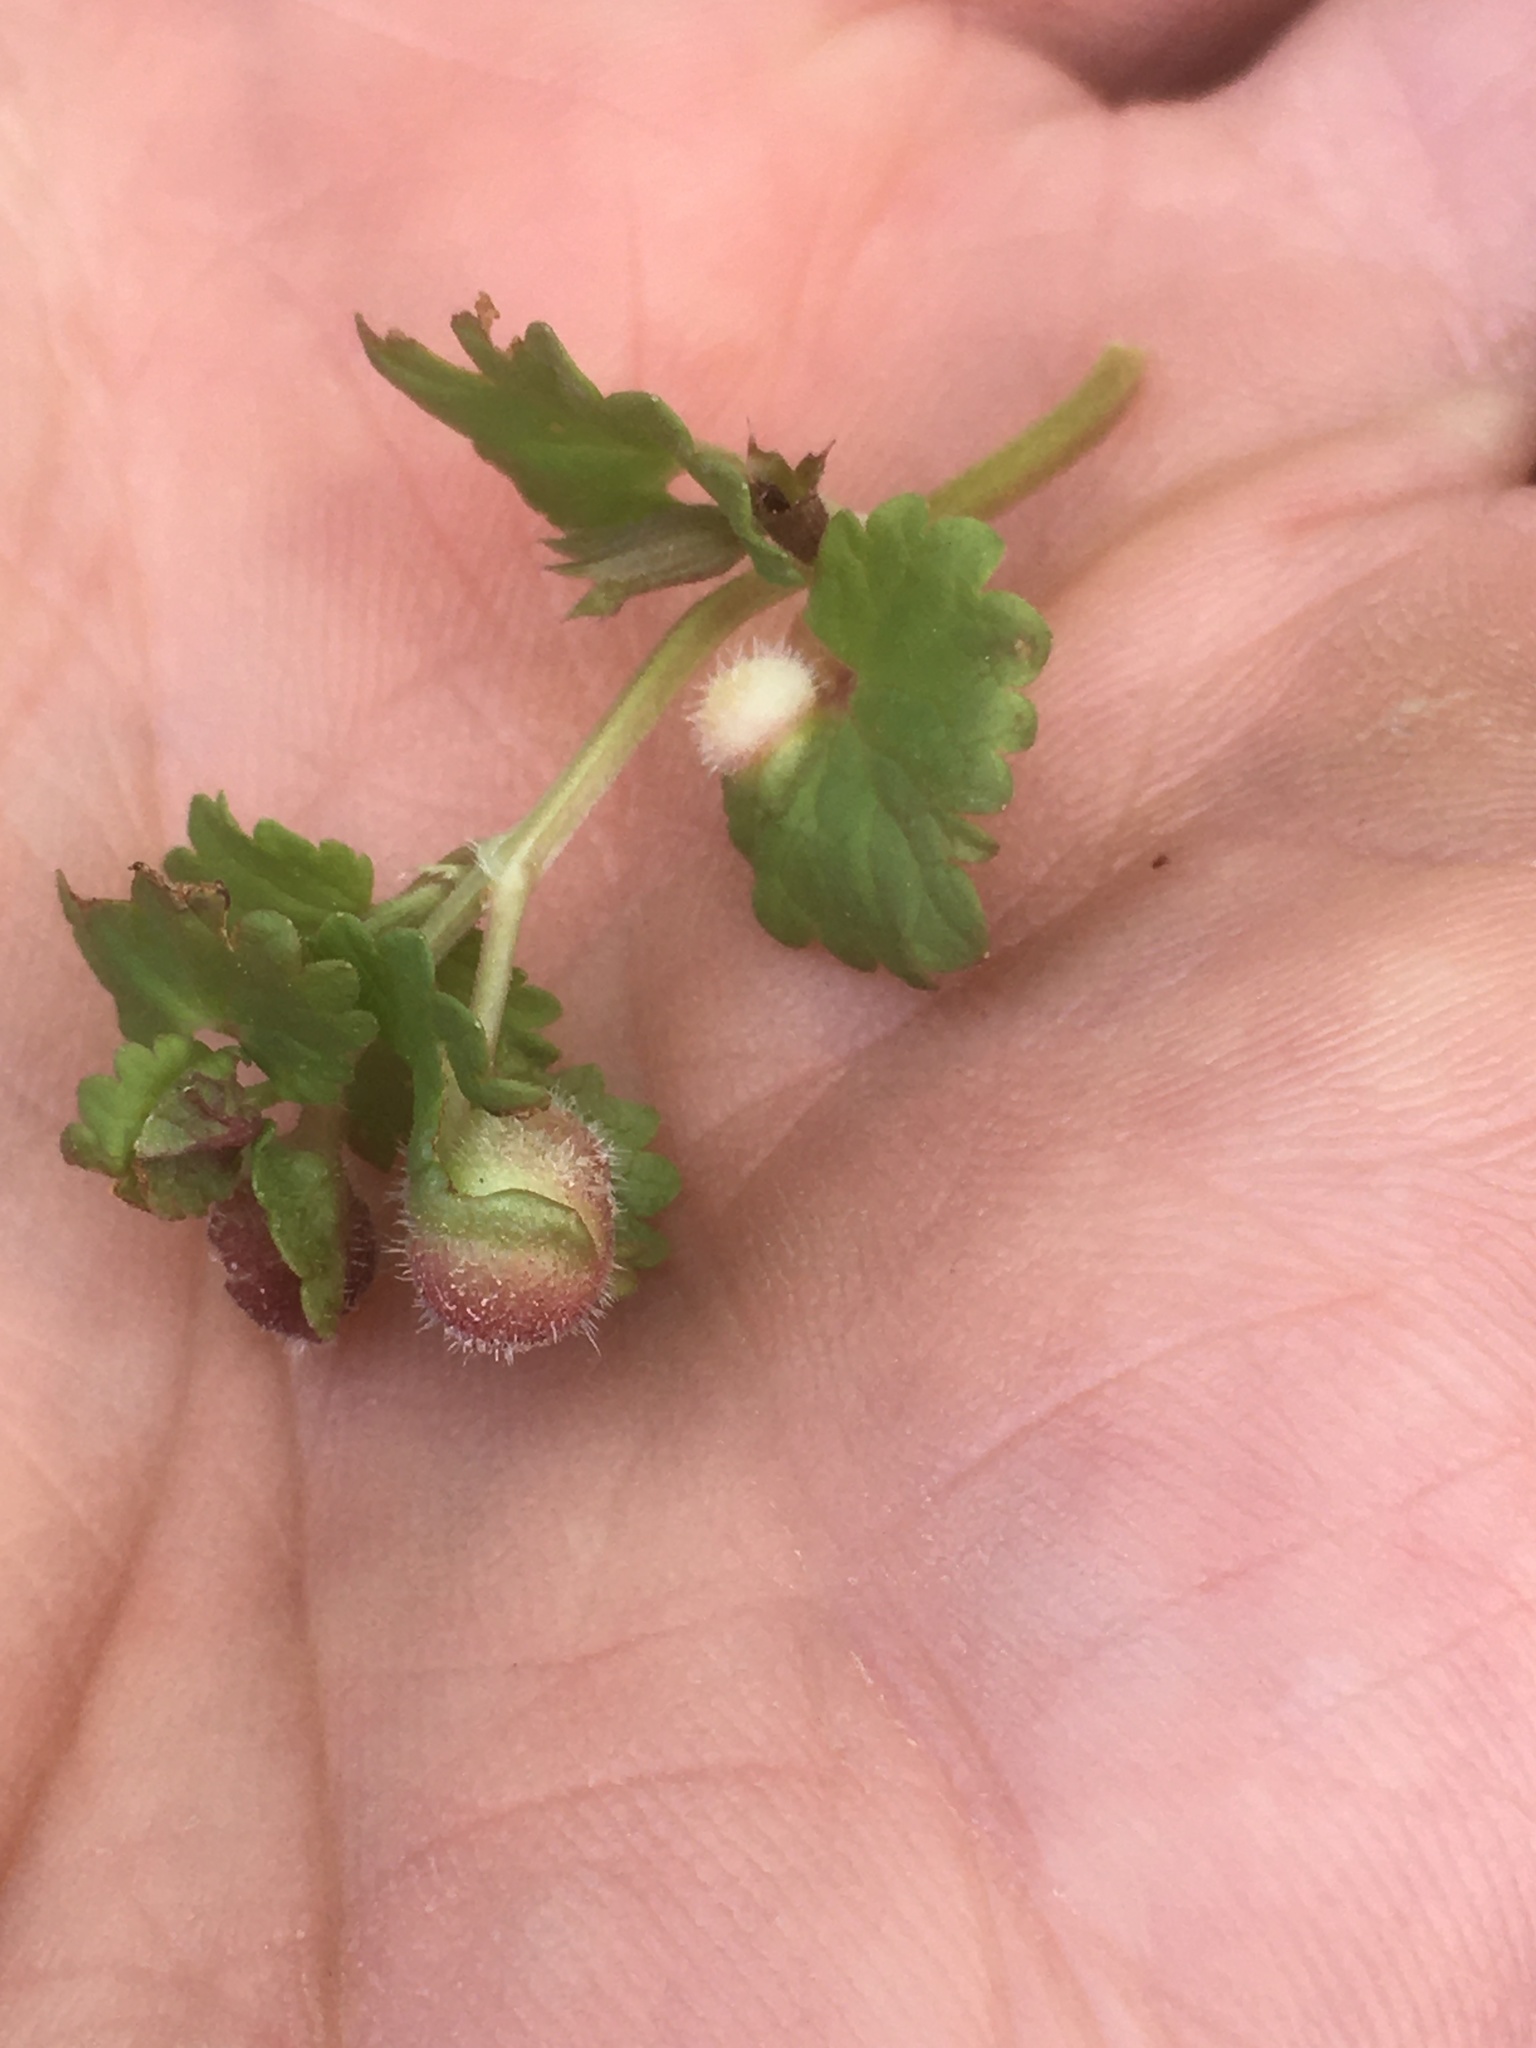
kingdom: Animalia
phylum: Arthropoda
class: Insecta
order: Hymenoptera
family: Cynipidae
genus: Liposthenes
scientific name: Liposthenes glechomae
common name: Gall wasp
